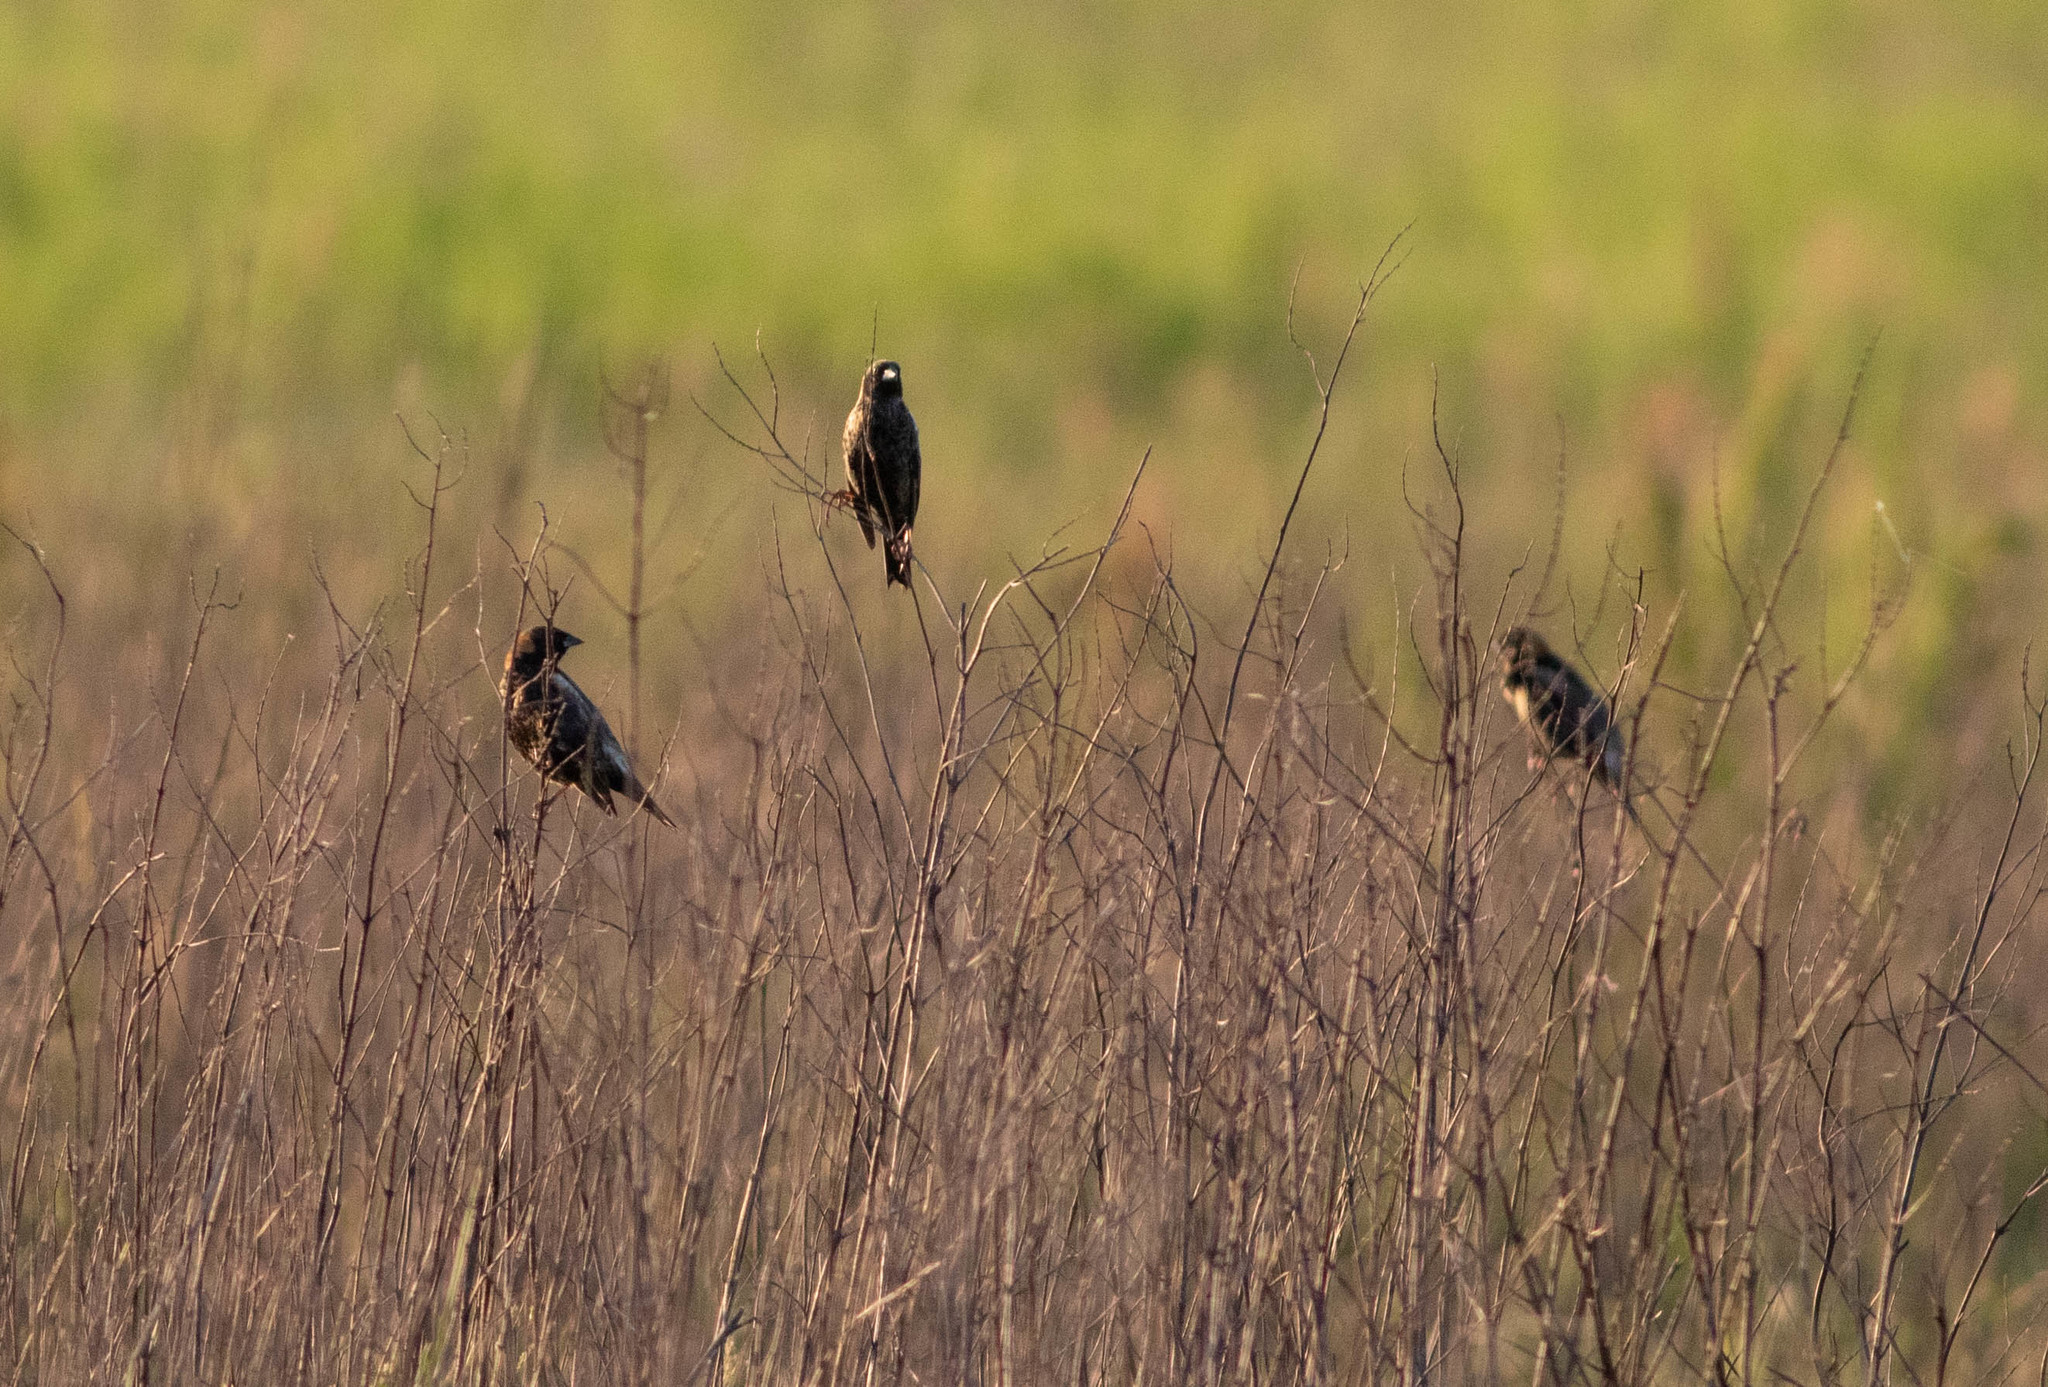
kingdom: Animalia
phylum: Chordata
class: Aves
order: Passeriformes
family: Icteridae
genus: Dolichonyx
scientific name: Dolichonyx oryzivorus
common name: Bobolink
